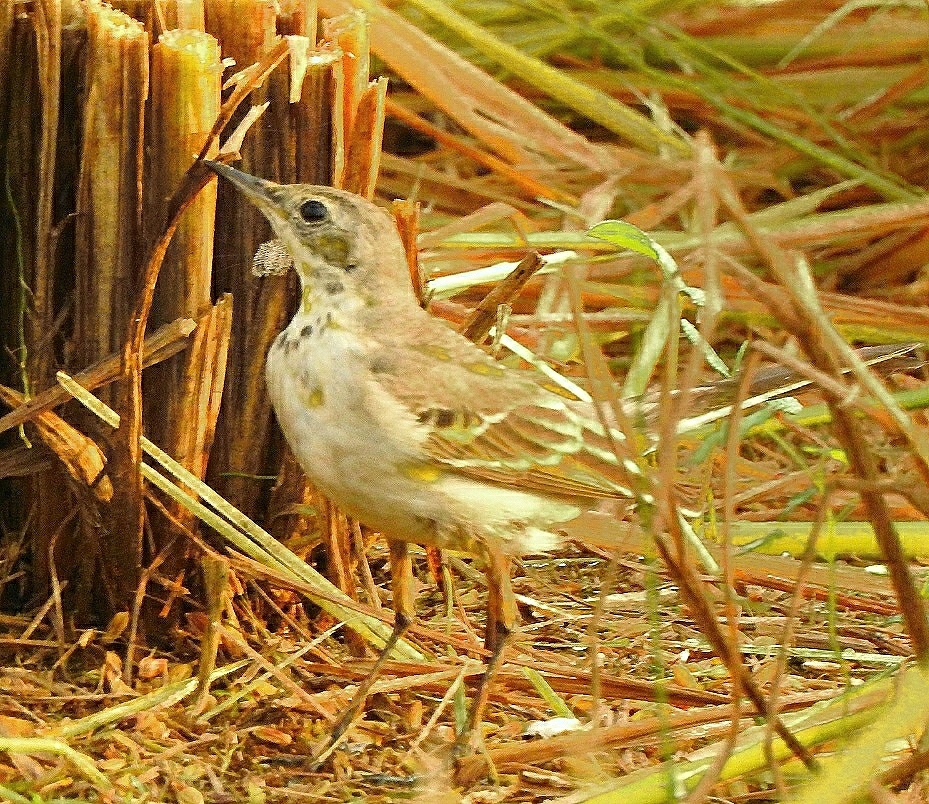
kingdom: Animalia
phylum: Chordata
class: Aves
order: Passeriformes
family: Motacillidae
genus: Motacilla
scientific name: Motacilla flava
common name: Western yellow wagtail
